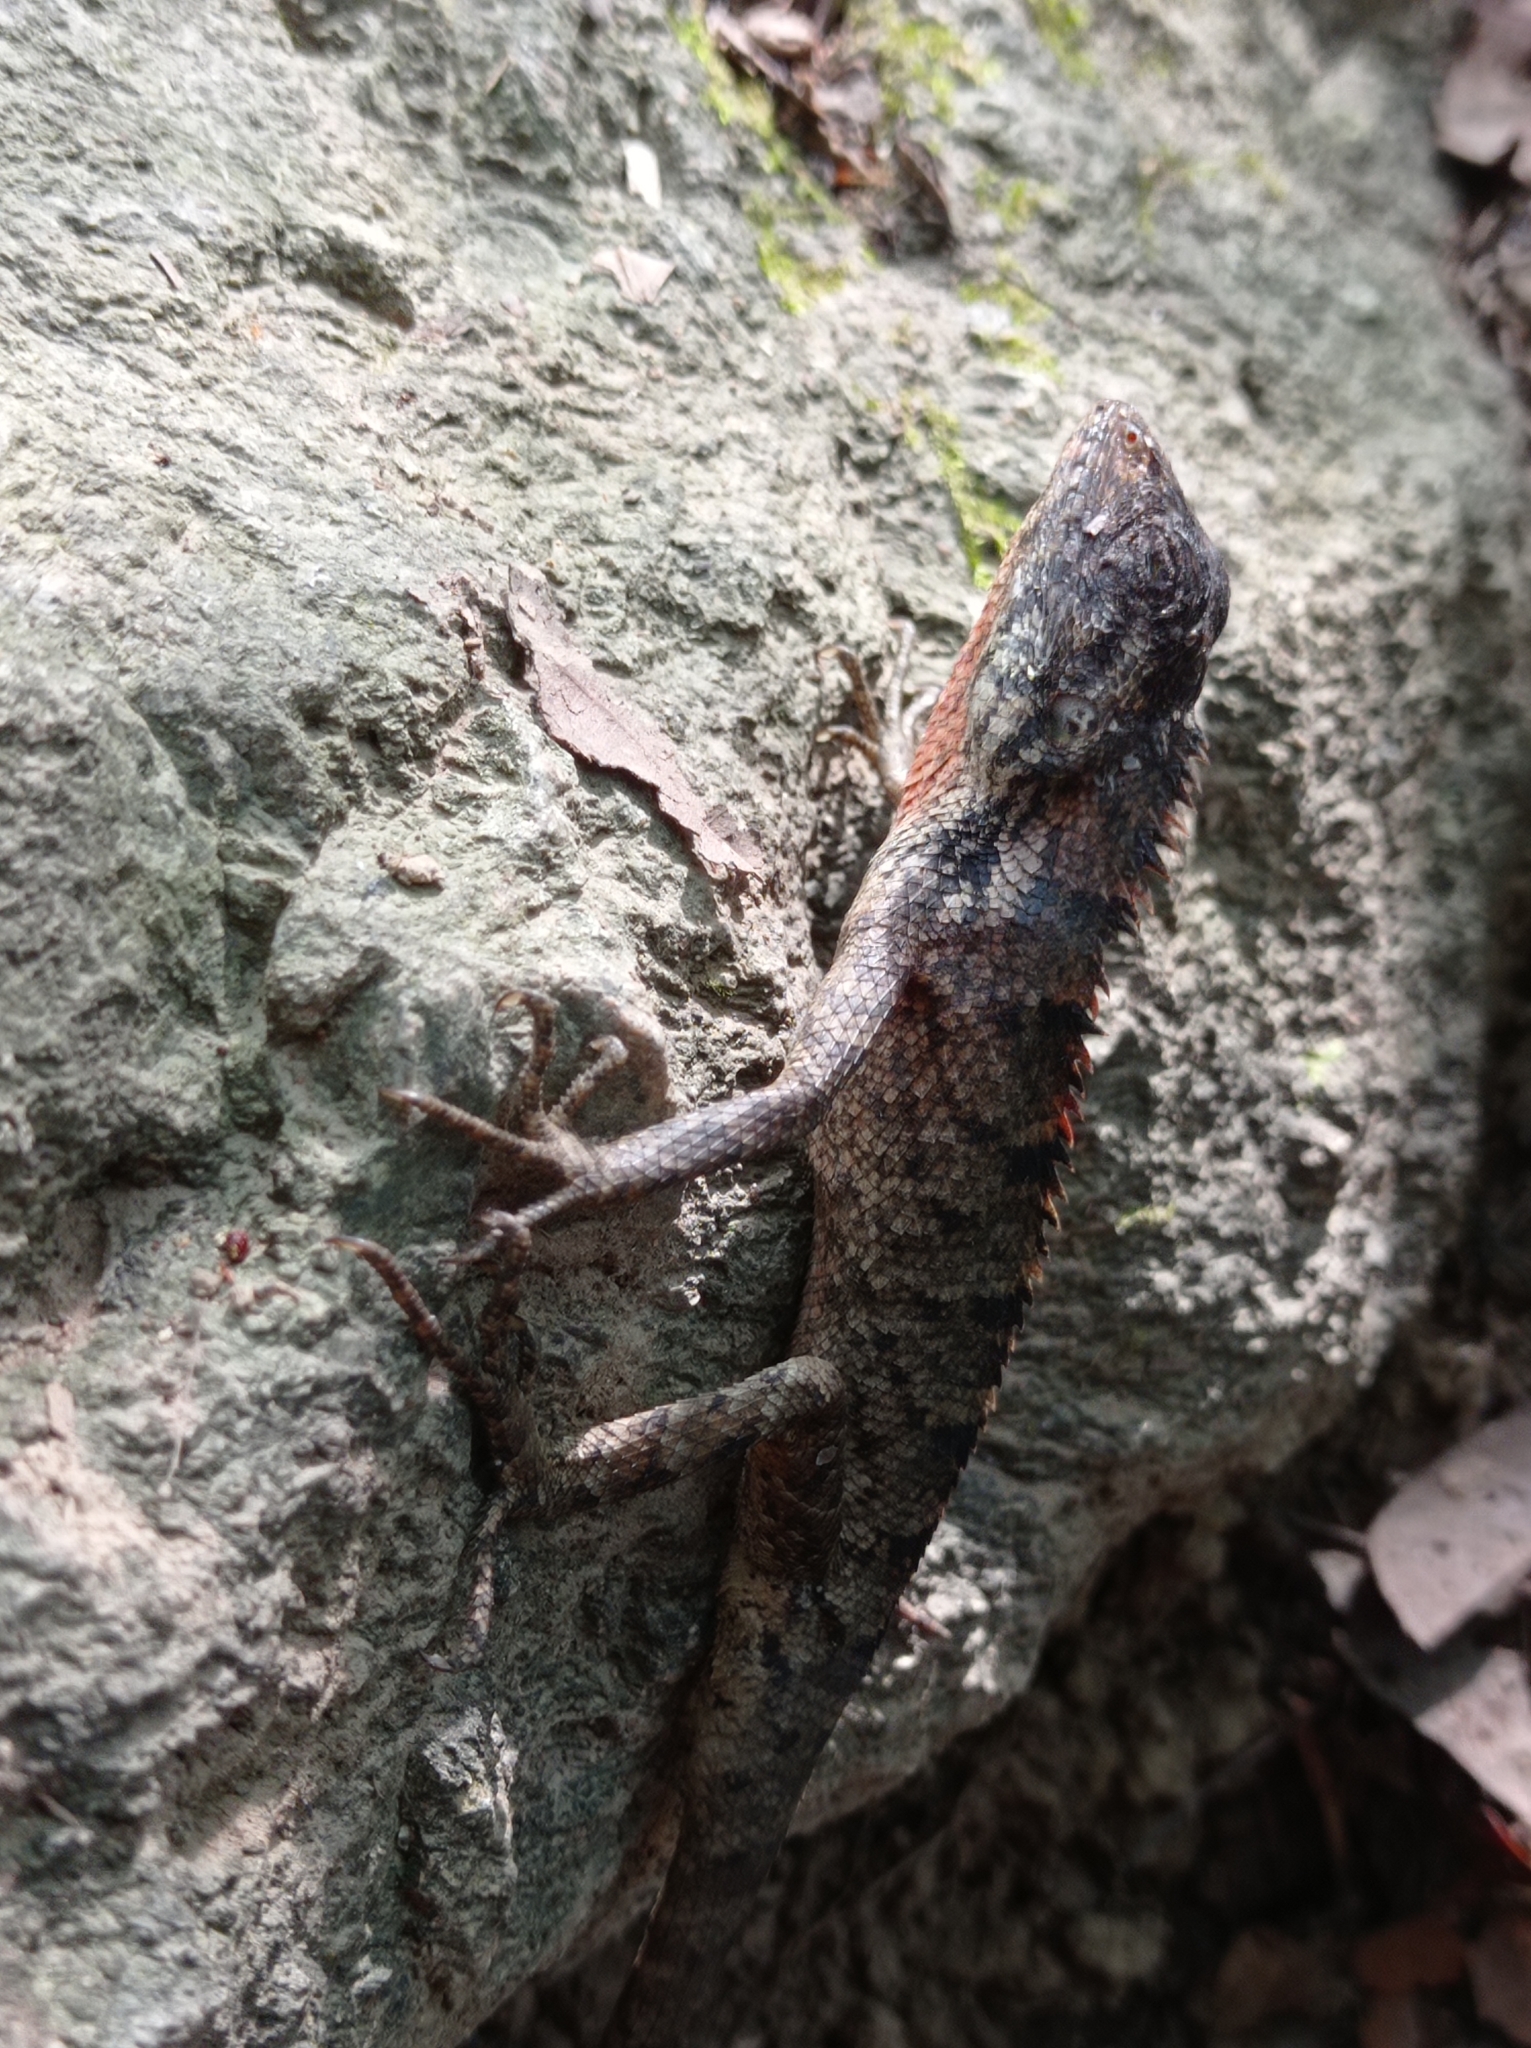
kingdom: Animalia
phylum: Chordata
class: Squamata
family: Agamidae
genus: Calotes
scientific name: Calotes versicolor
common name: Oriental garden lizard
